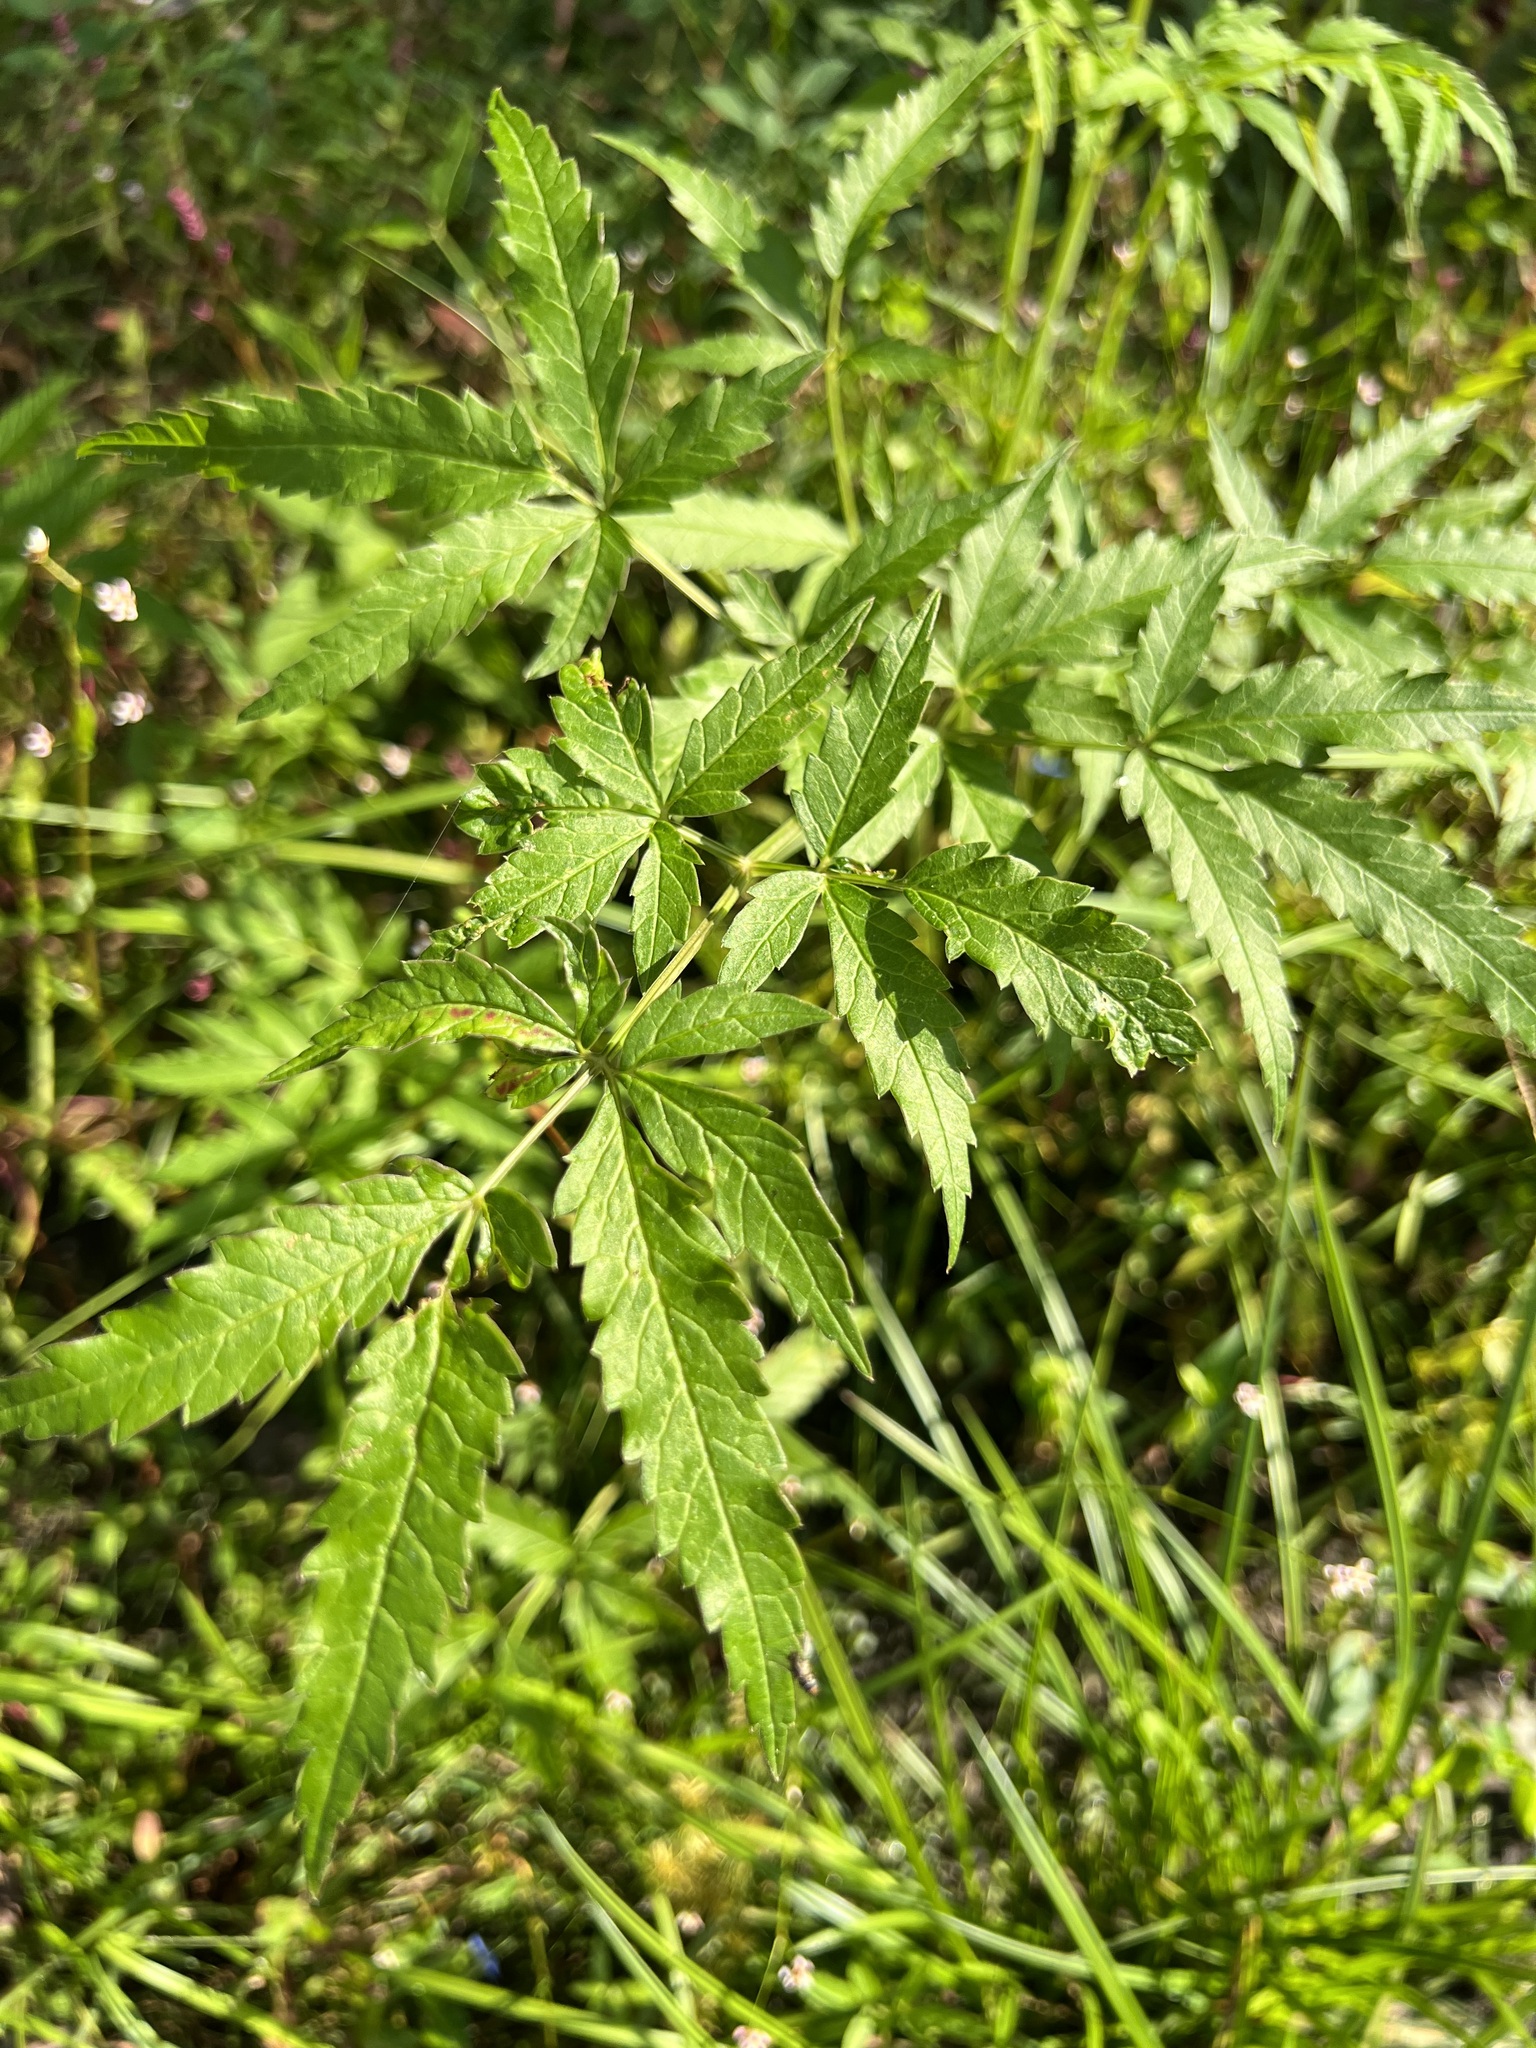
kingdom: Plantae
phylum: Tracheophyta
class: Magnoliopsida
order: Apiales
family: Apiaceae
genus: Cicuta
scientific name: Cicuta maculata
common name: Spotted cowbane
